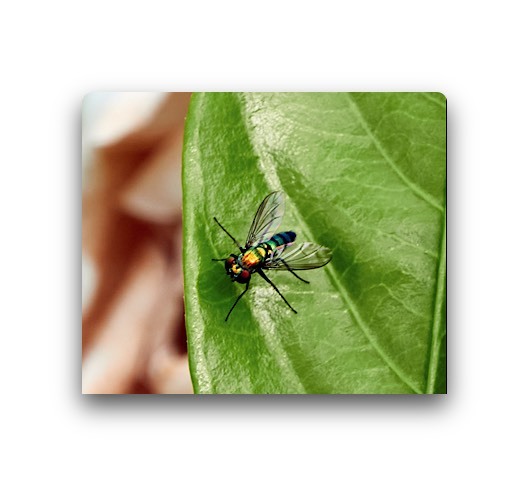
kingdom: Animalia
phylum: Arthropoda
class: Insecta
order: Diptera
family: Dolichopodidae
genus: Condylostylus
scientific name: Condylostylus longicornis
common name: Long-legged fly
